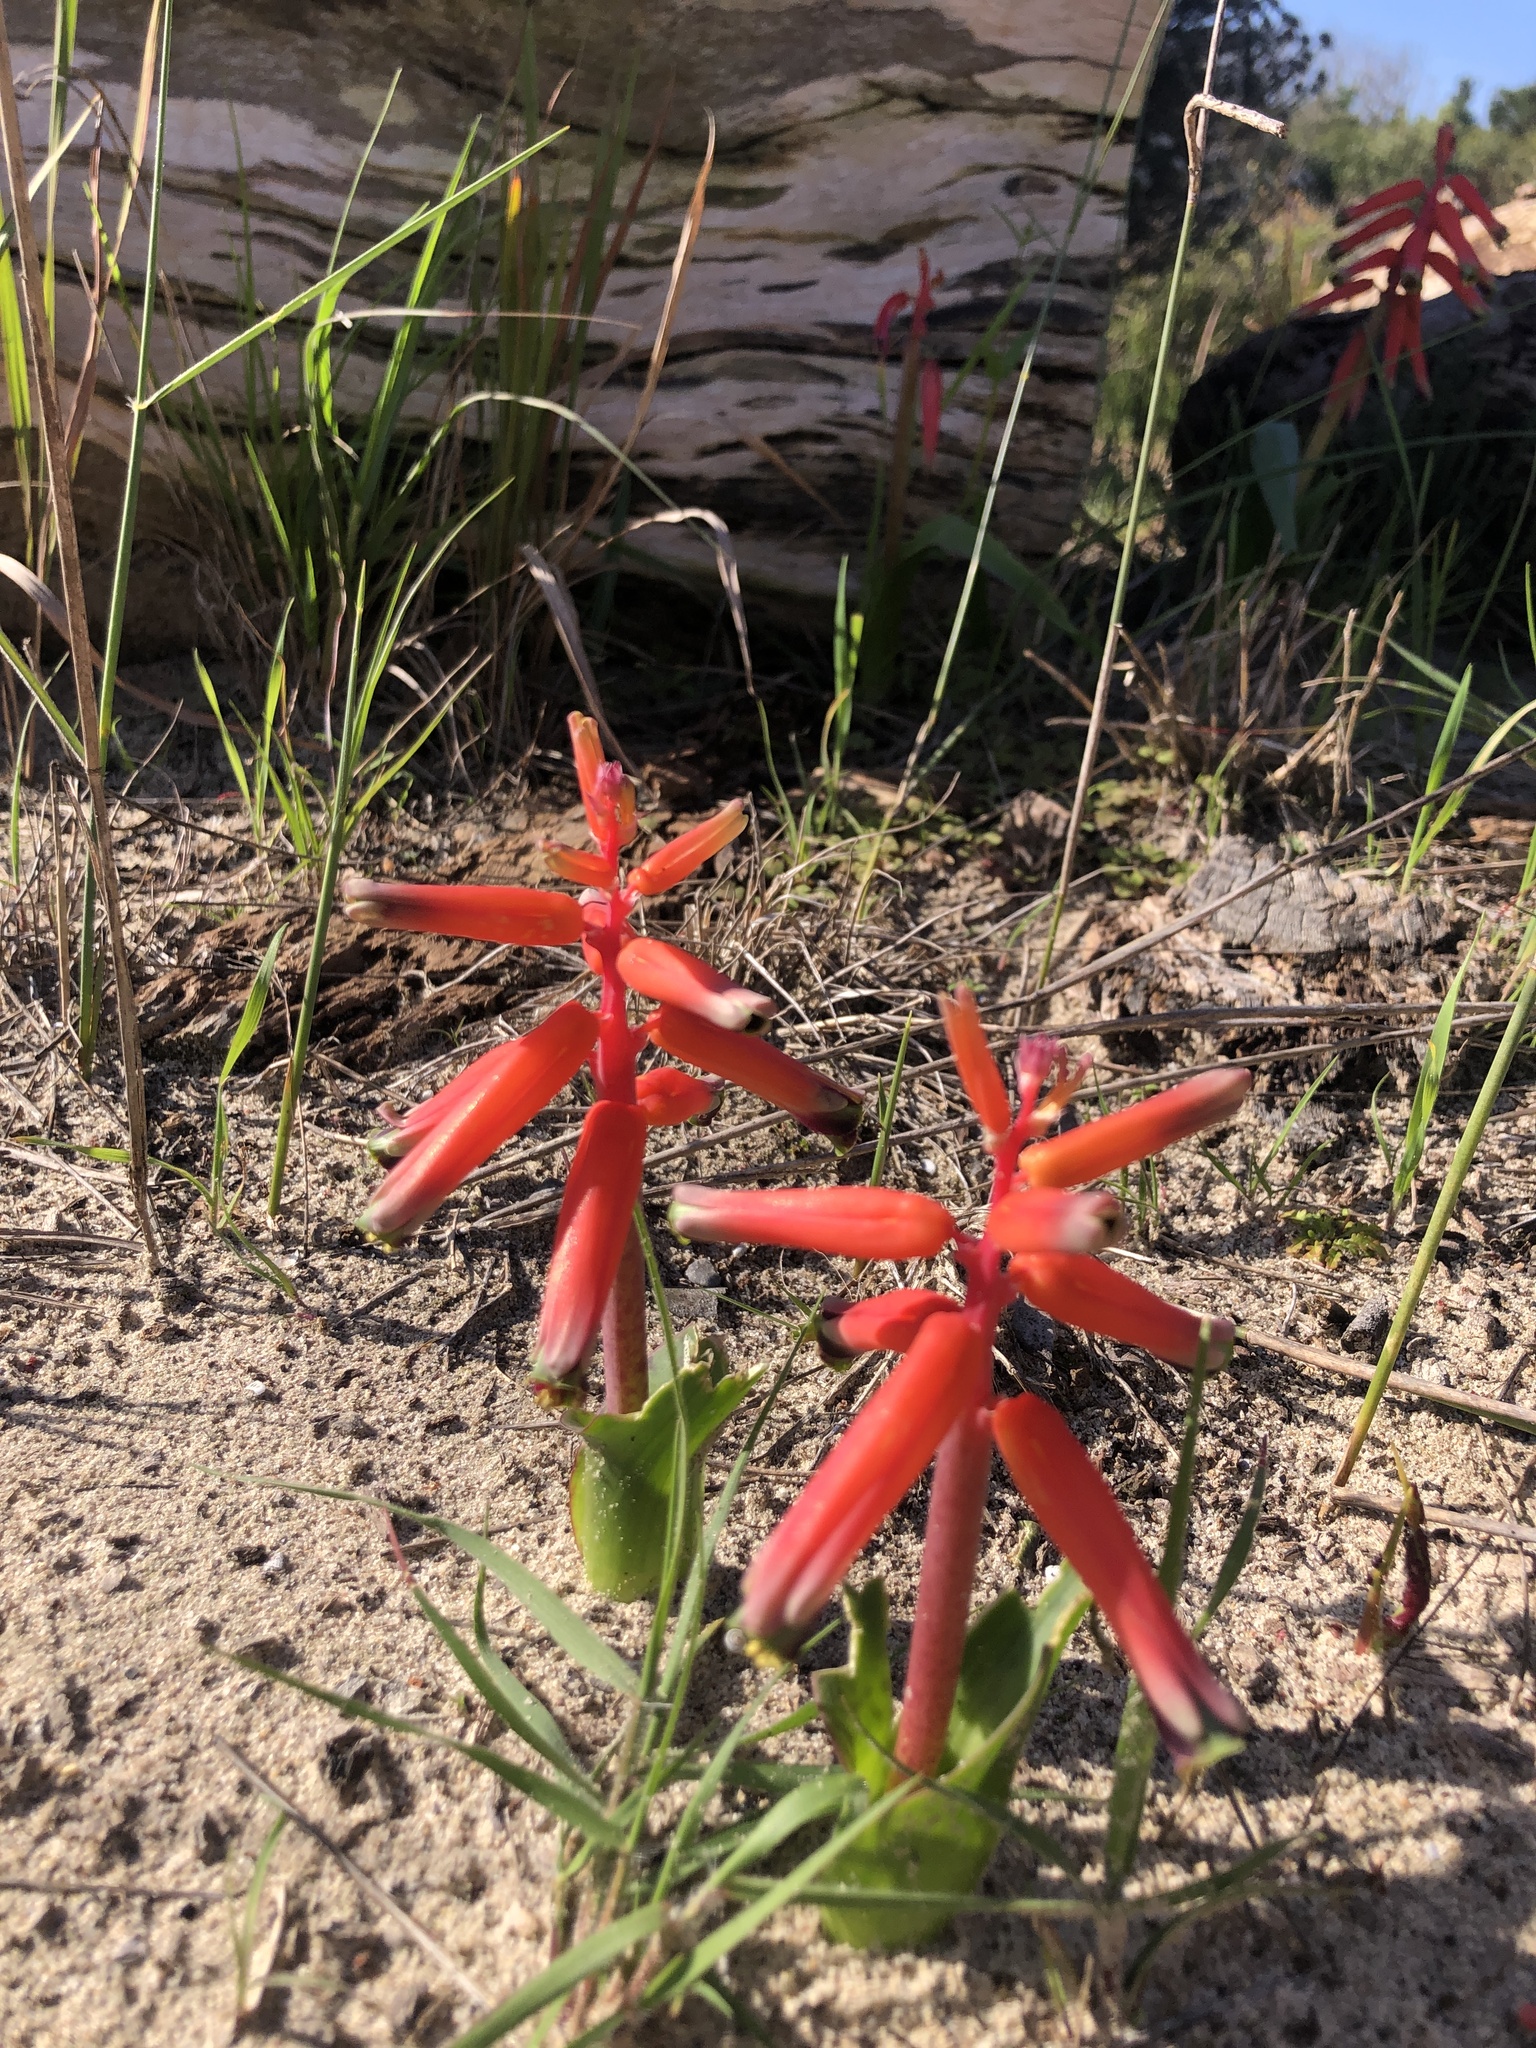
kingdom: Plantae
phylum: Tracheophyta
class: Liliopsida
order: Asparagales
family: Asparagaceae
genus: Lachenalia
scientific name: Lachenalia bulbifera
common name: Red lachenalia
